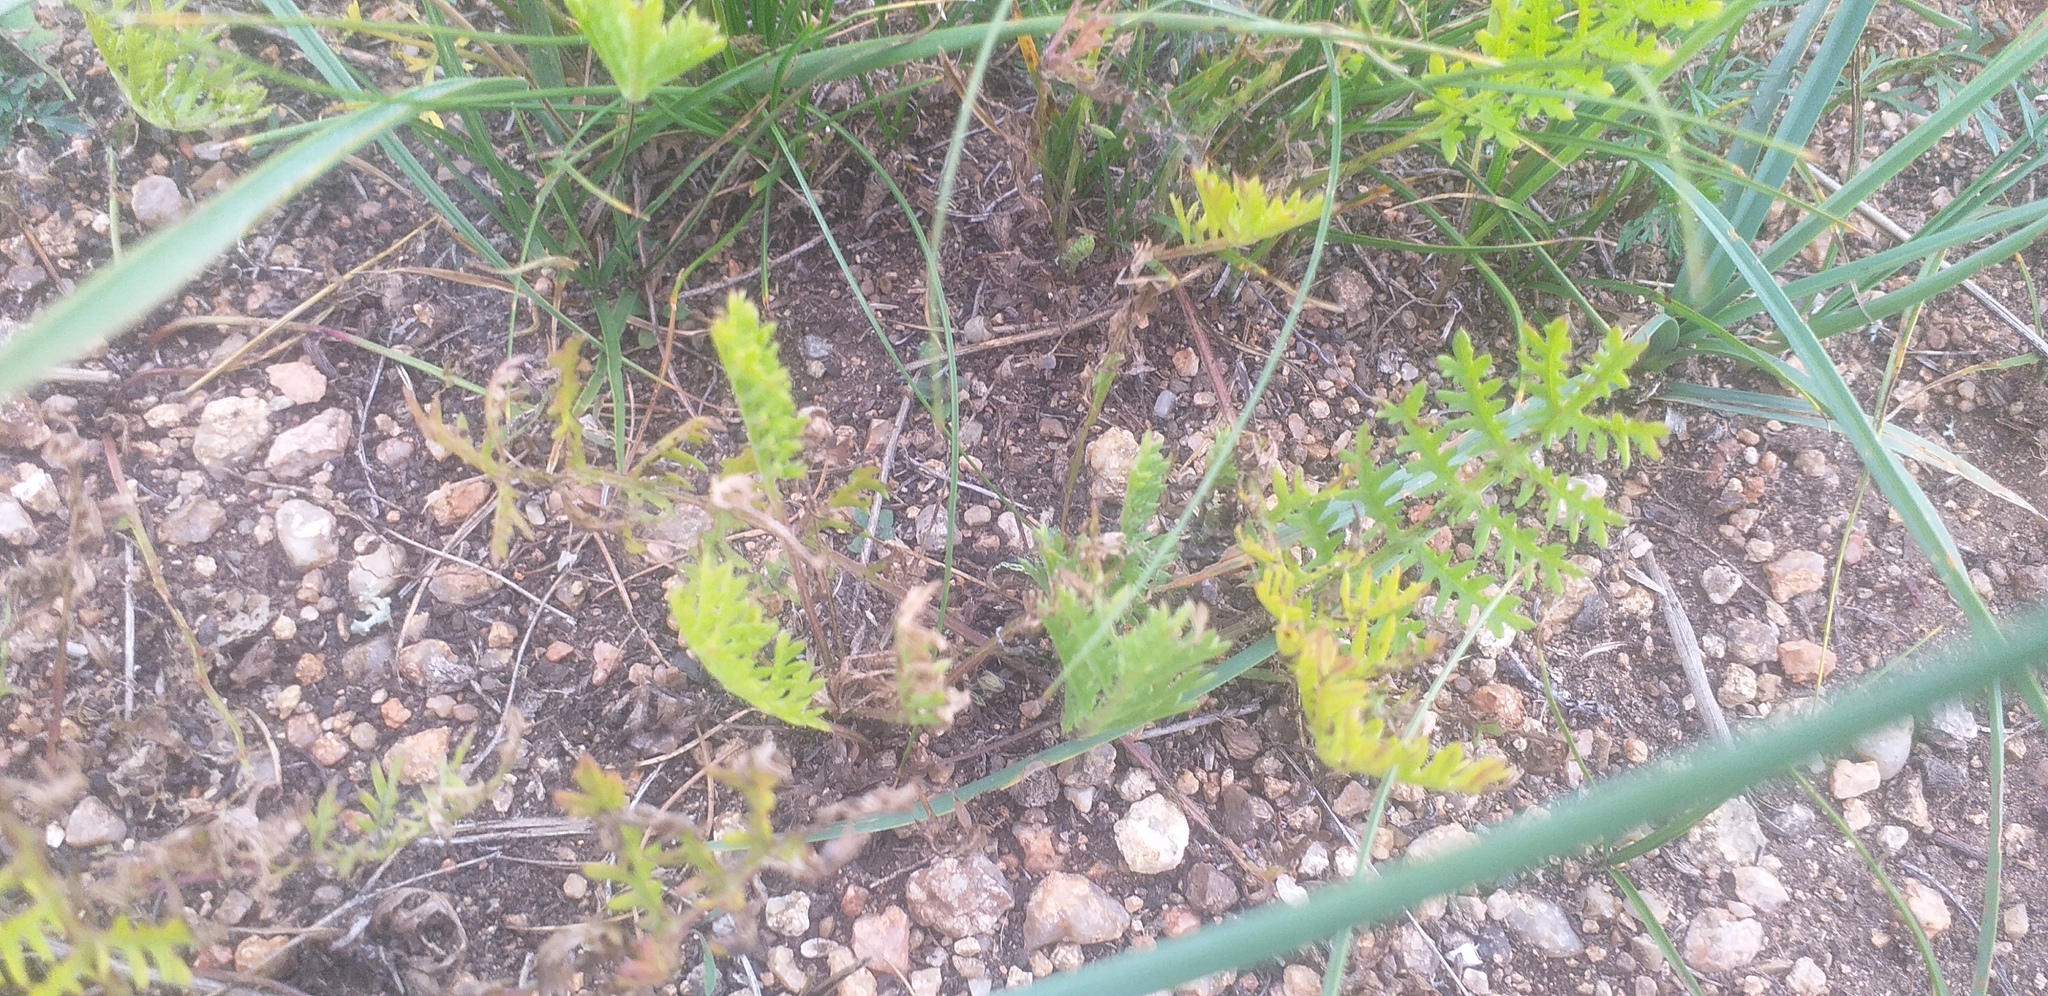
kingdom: Plantae
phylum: Tracheophyta
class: Magnoliopsida
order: Asterales
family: Asteraceae
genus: Artemisia
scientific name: Artemisia tanacetifolia
